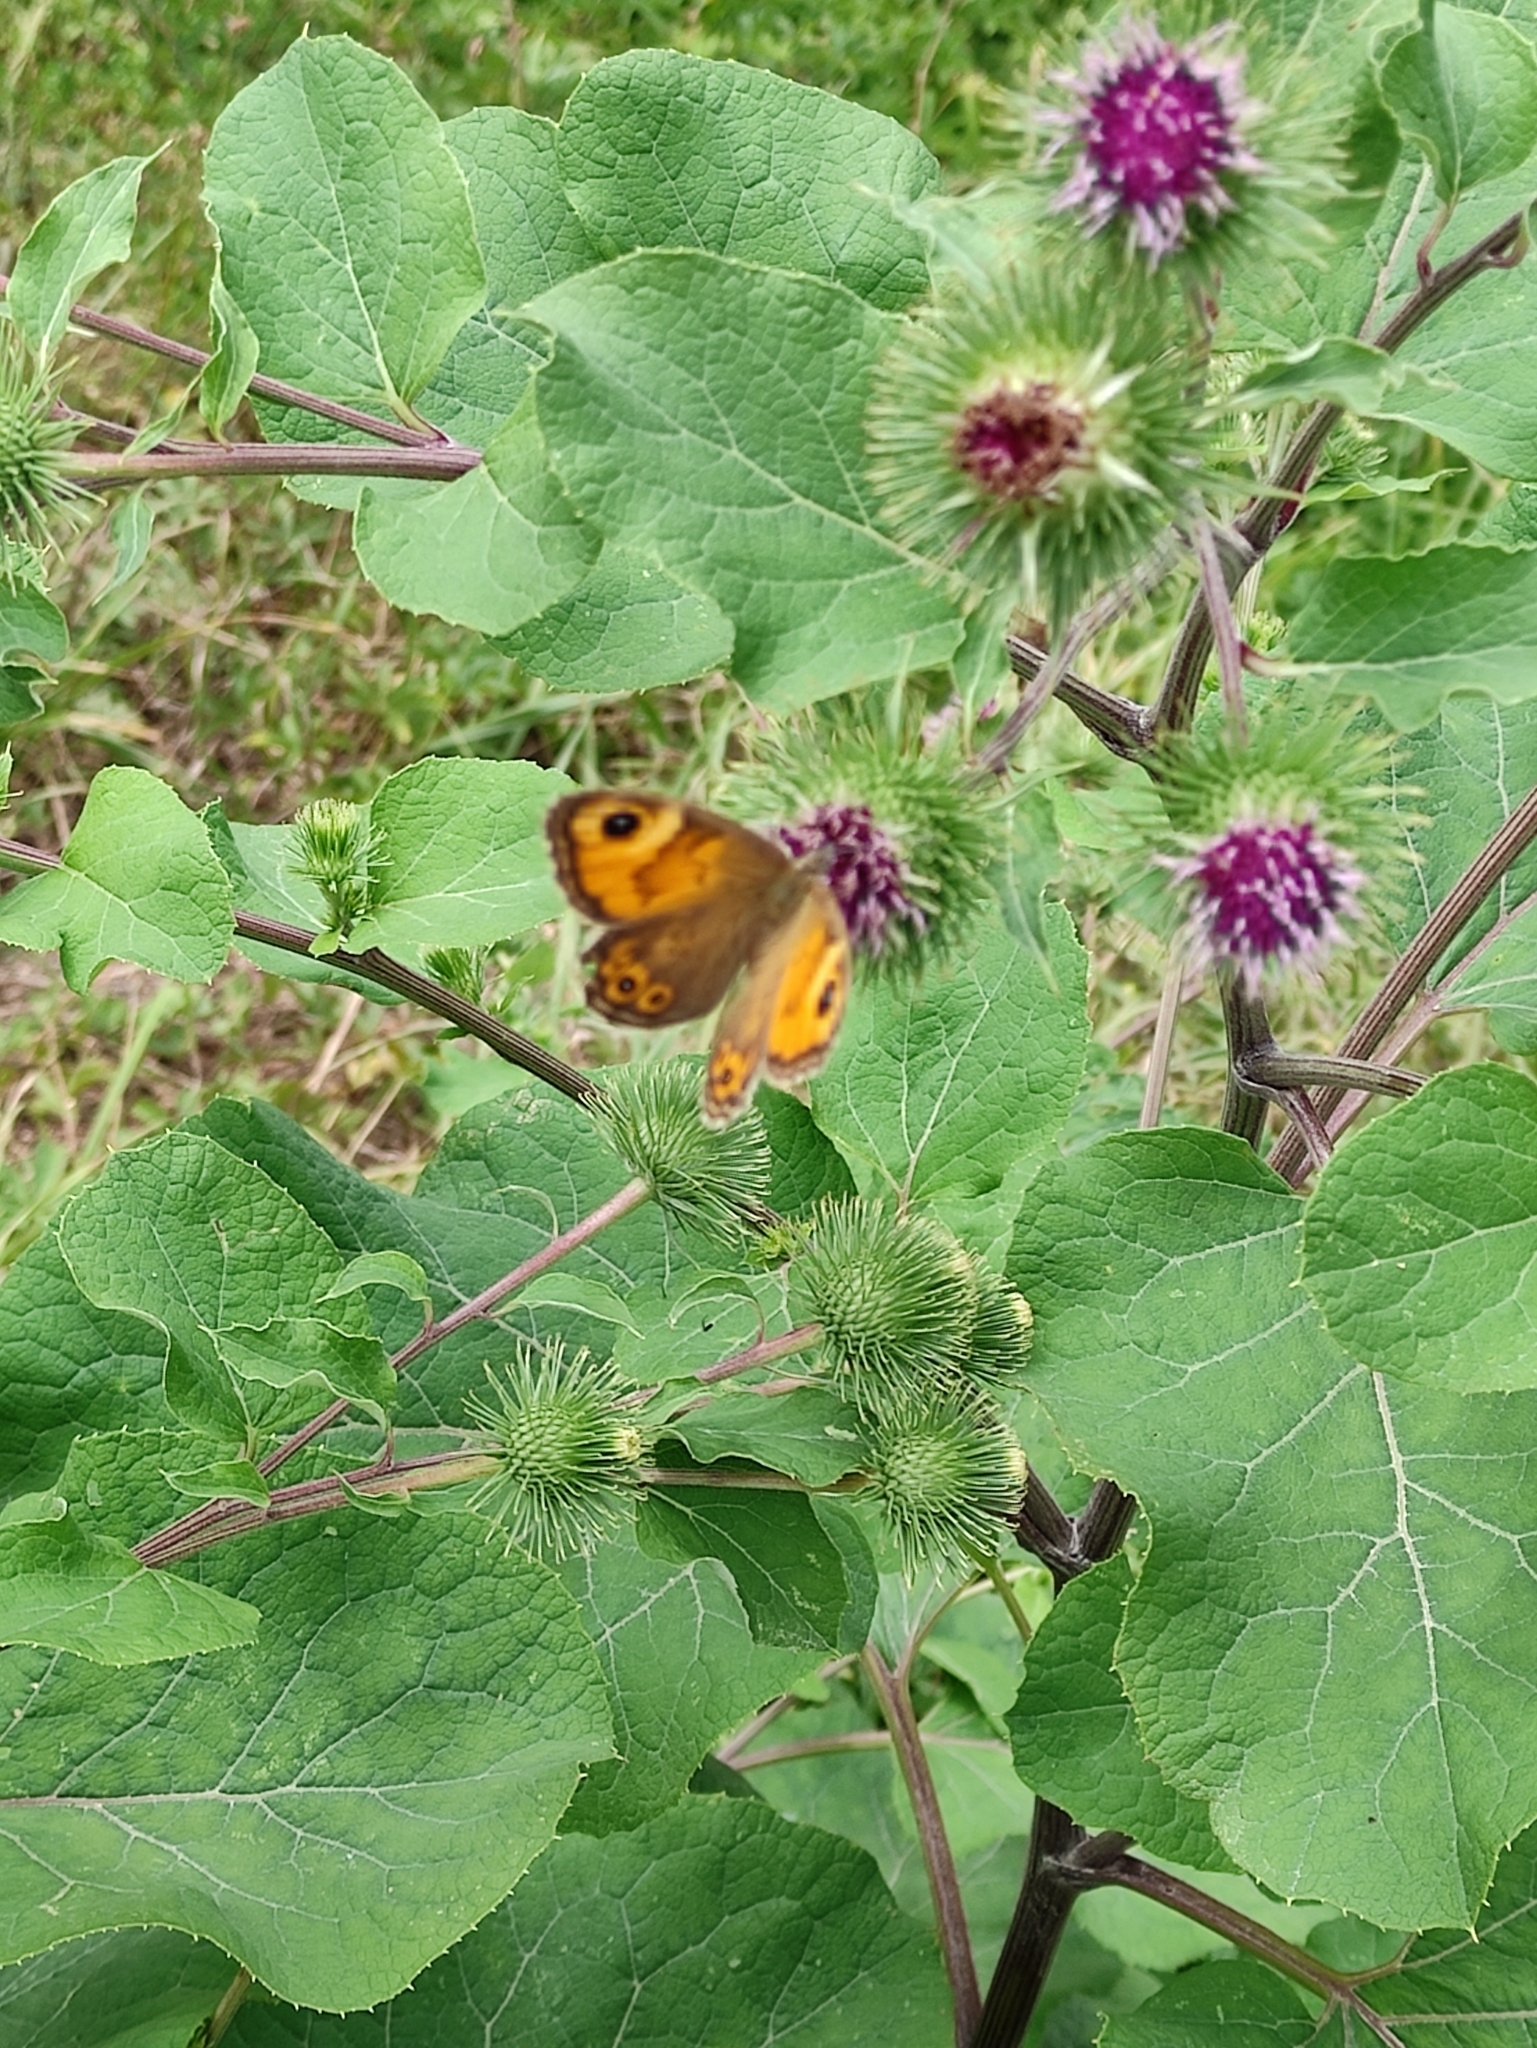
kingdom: Animalia
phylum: Arthropoda
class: Insecta
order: Lepidoptera
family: Nymphalidae
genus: Pararge
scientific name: Pararge Lasiommata maera
